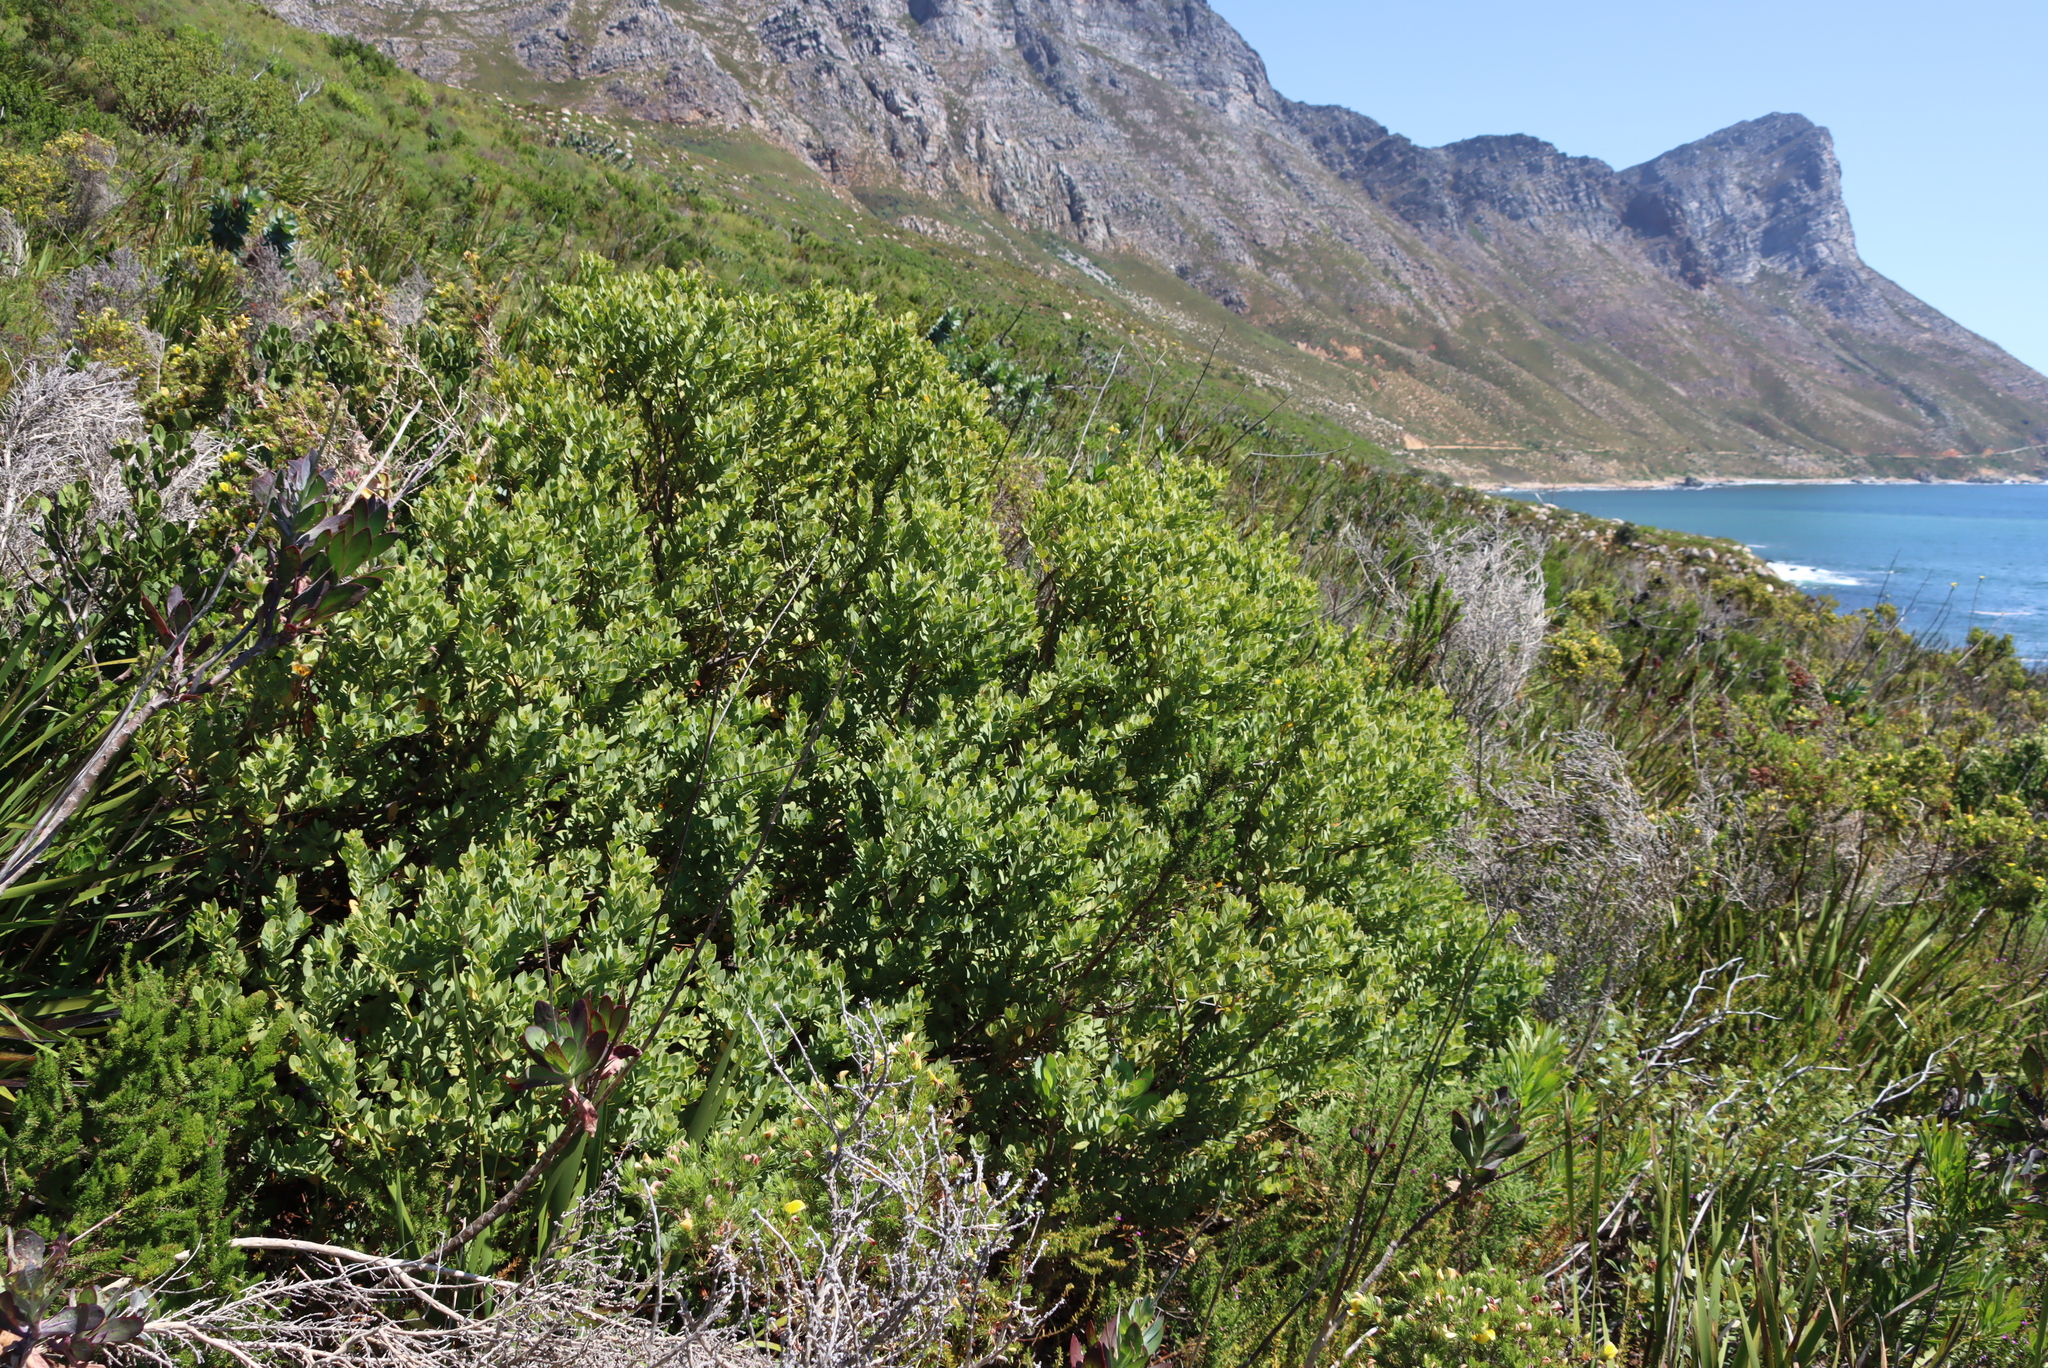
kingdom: Plantae
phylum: Tracheophyta
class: Magnoliopsida
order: Santalales
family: Santalaceae
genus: Osyris
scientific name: Osyris compressa
